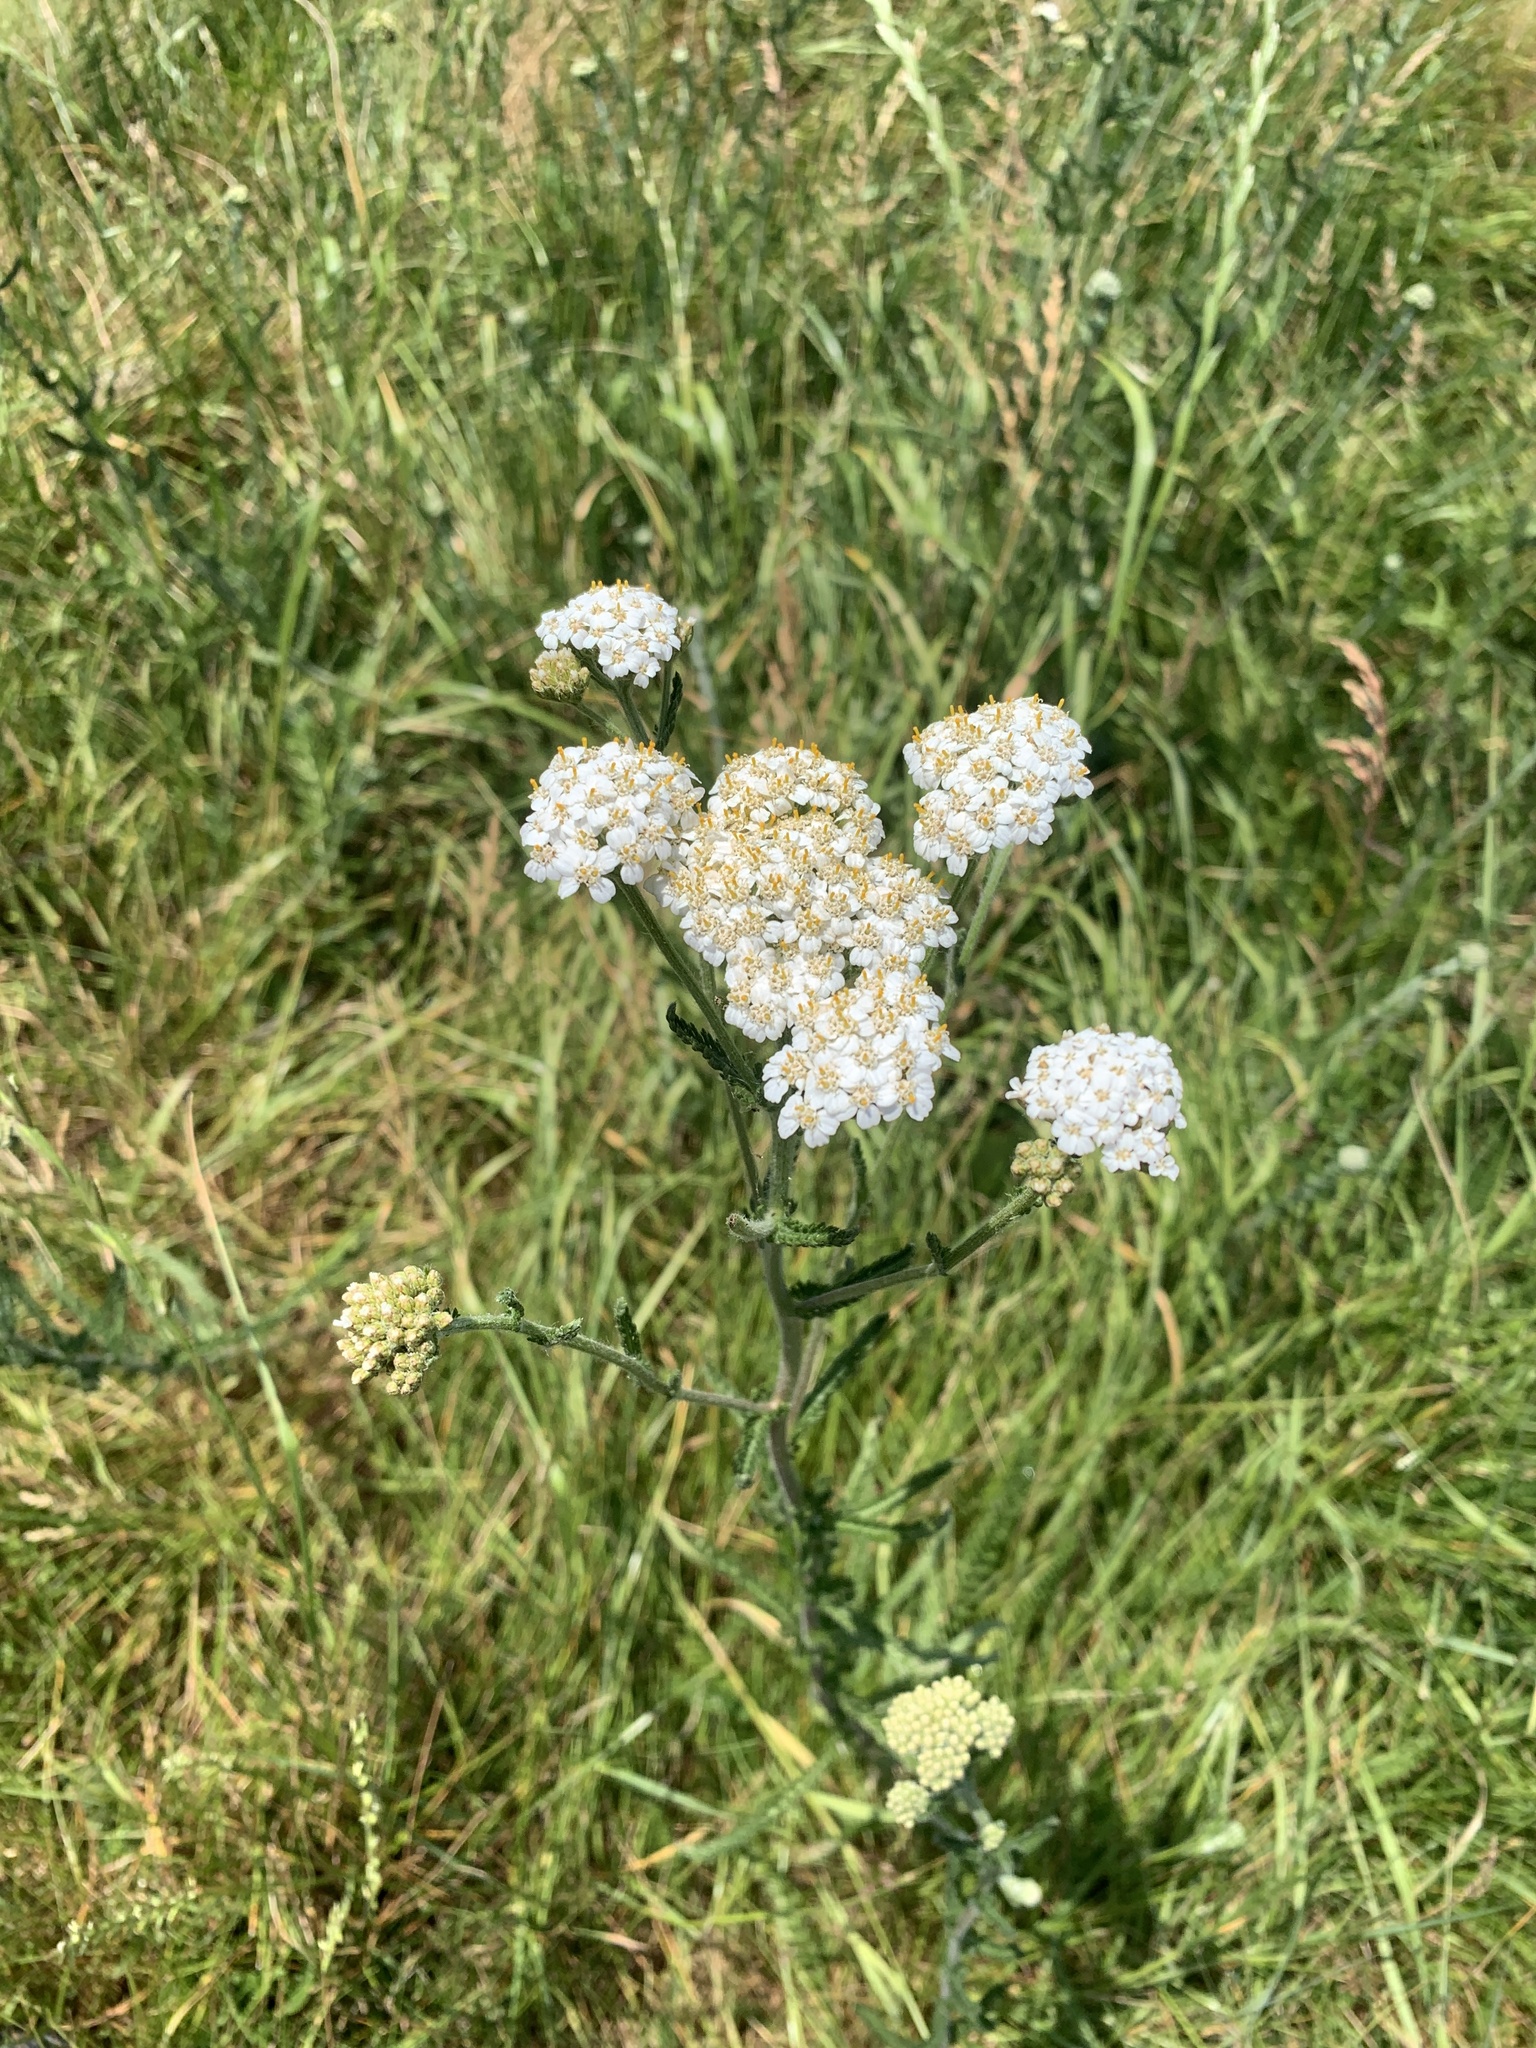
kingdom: Plantae
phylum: Tracheophyta
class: Magnoliopsida
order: Asterales
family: Asteraceae
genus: Achillea
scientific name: Achillea millefolium
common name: Yarrow
